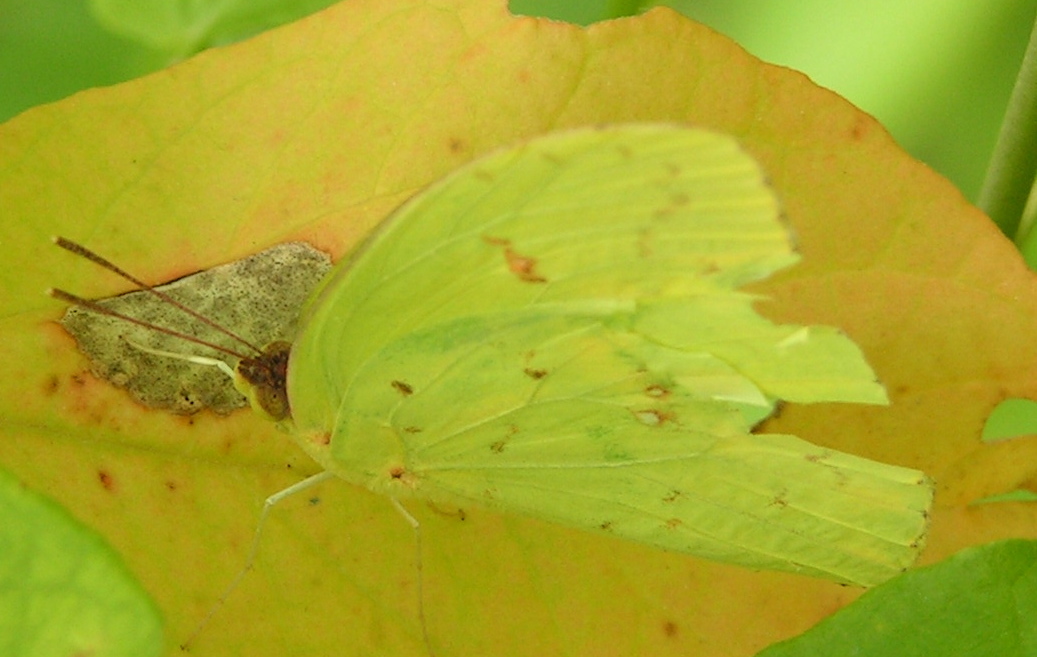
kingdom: Animalia
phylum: Arthropoda
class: Insecta
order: Lepidoptera
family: Pieridae
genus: Phoebis
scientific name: Phoebis sennae
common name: Cloudless sulphur
